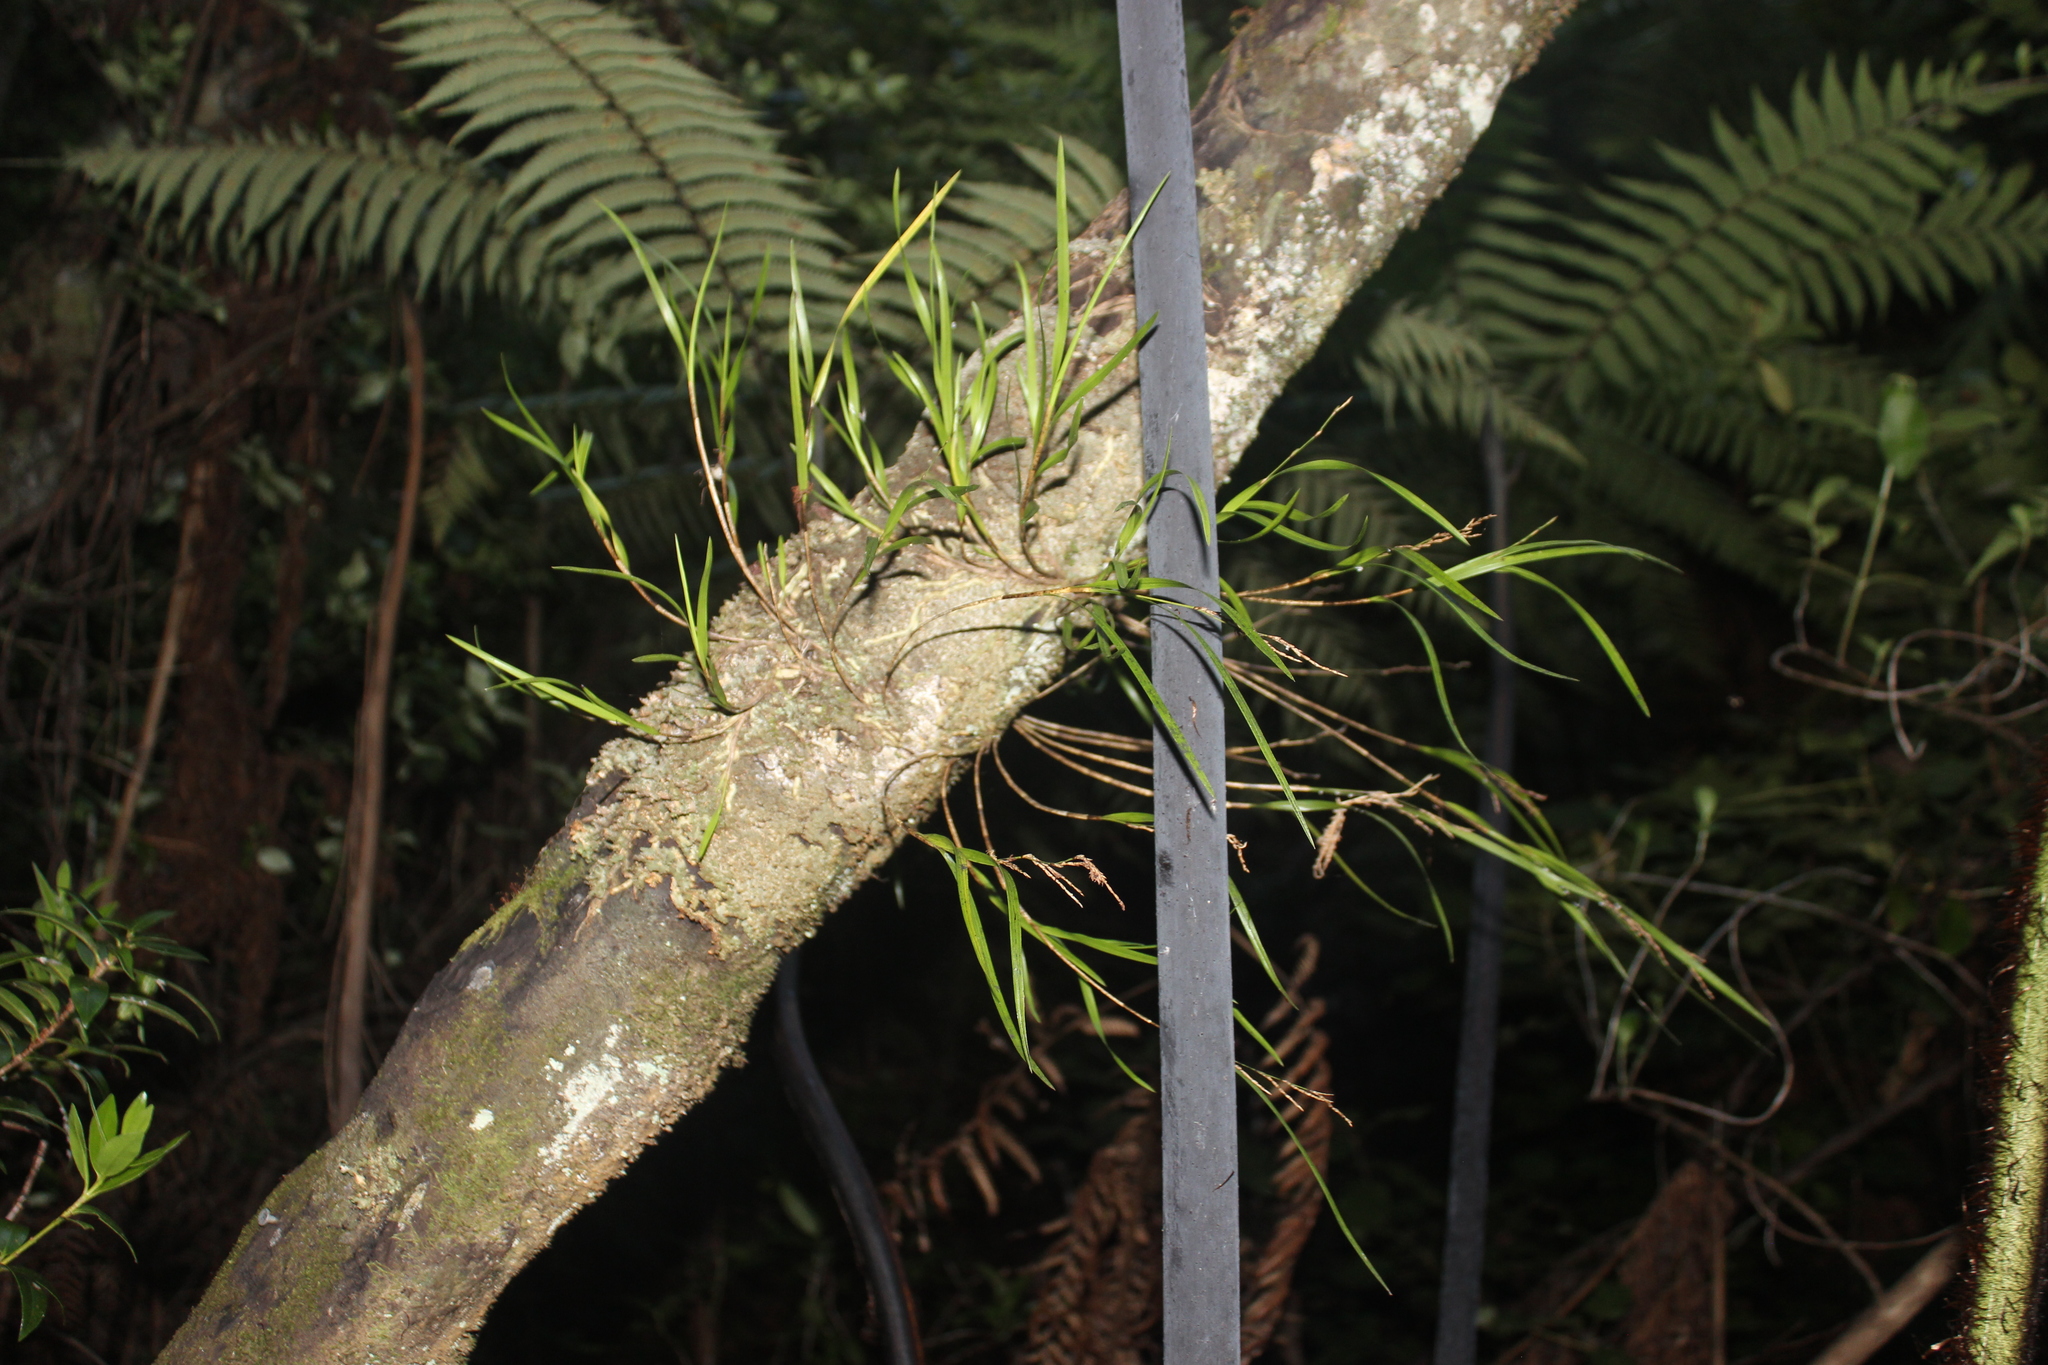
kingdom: Plantae
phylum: Tracheophyta
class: Liliopsida
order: Asparagales
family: Orchidaceae
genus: Earina
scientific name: Earina mucronata
